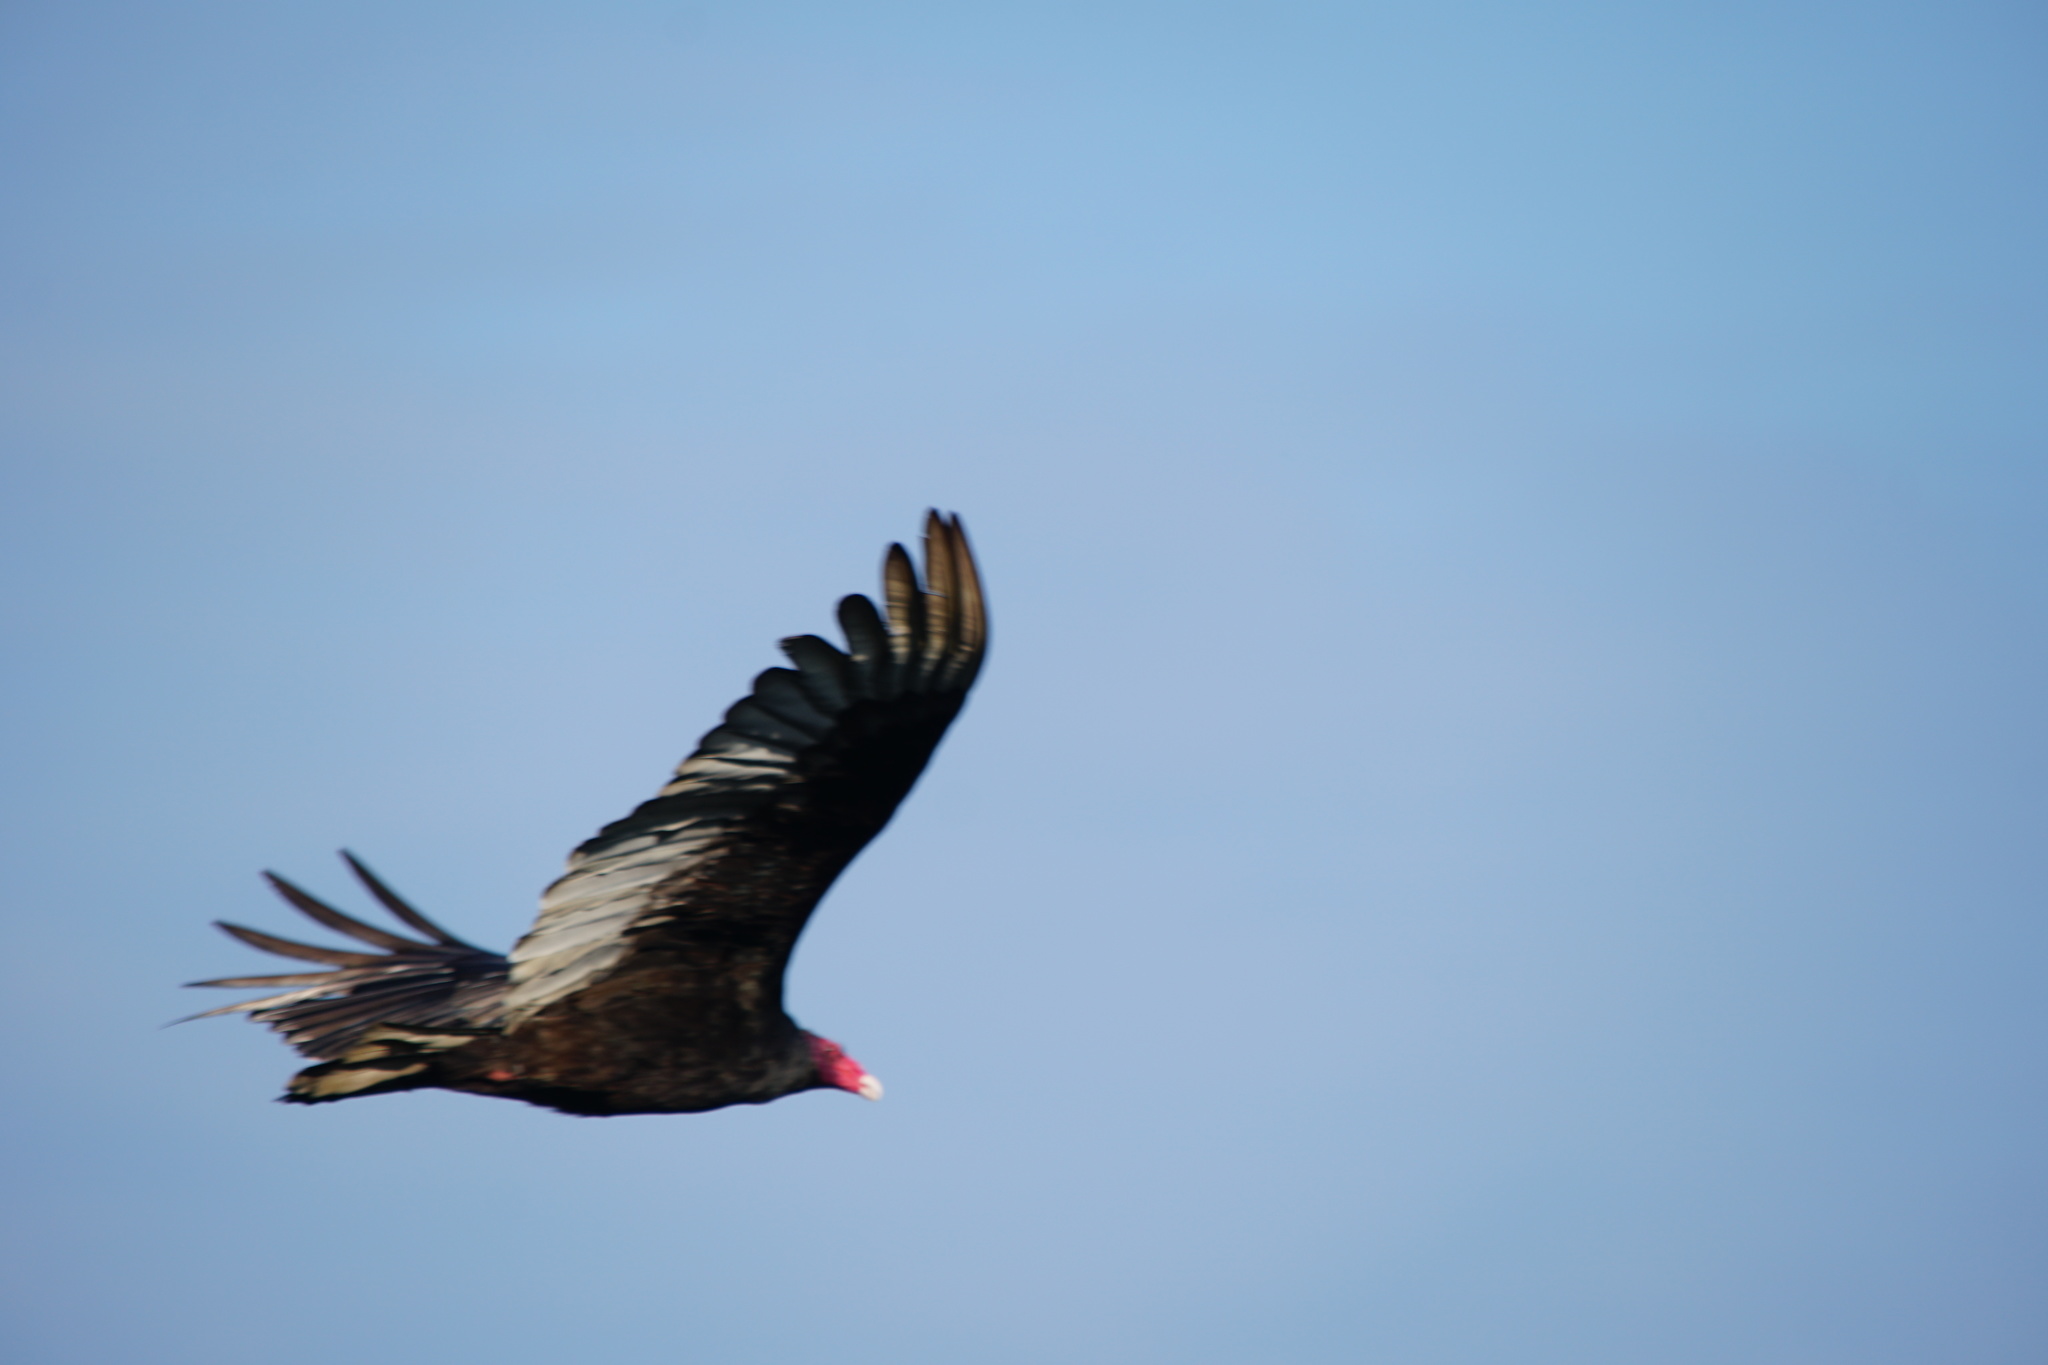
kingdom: Animalia
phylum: Chordata
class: Aves
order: Accipitriformes
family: Cathartidae
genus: Cathartes
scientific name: Cathartes aura
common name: Turkey vulture
